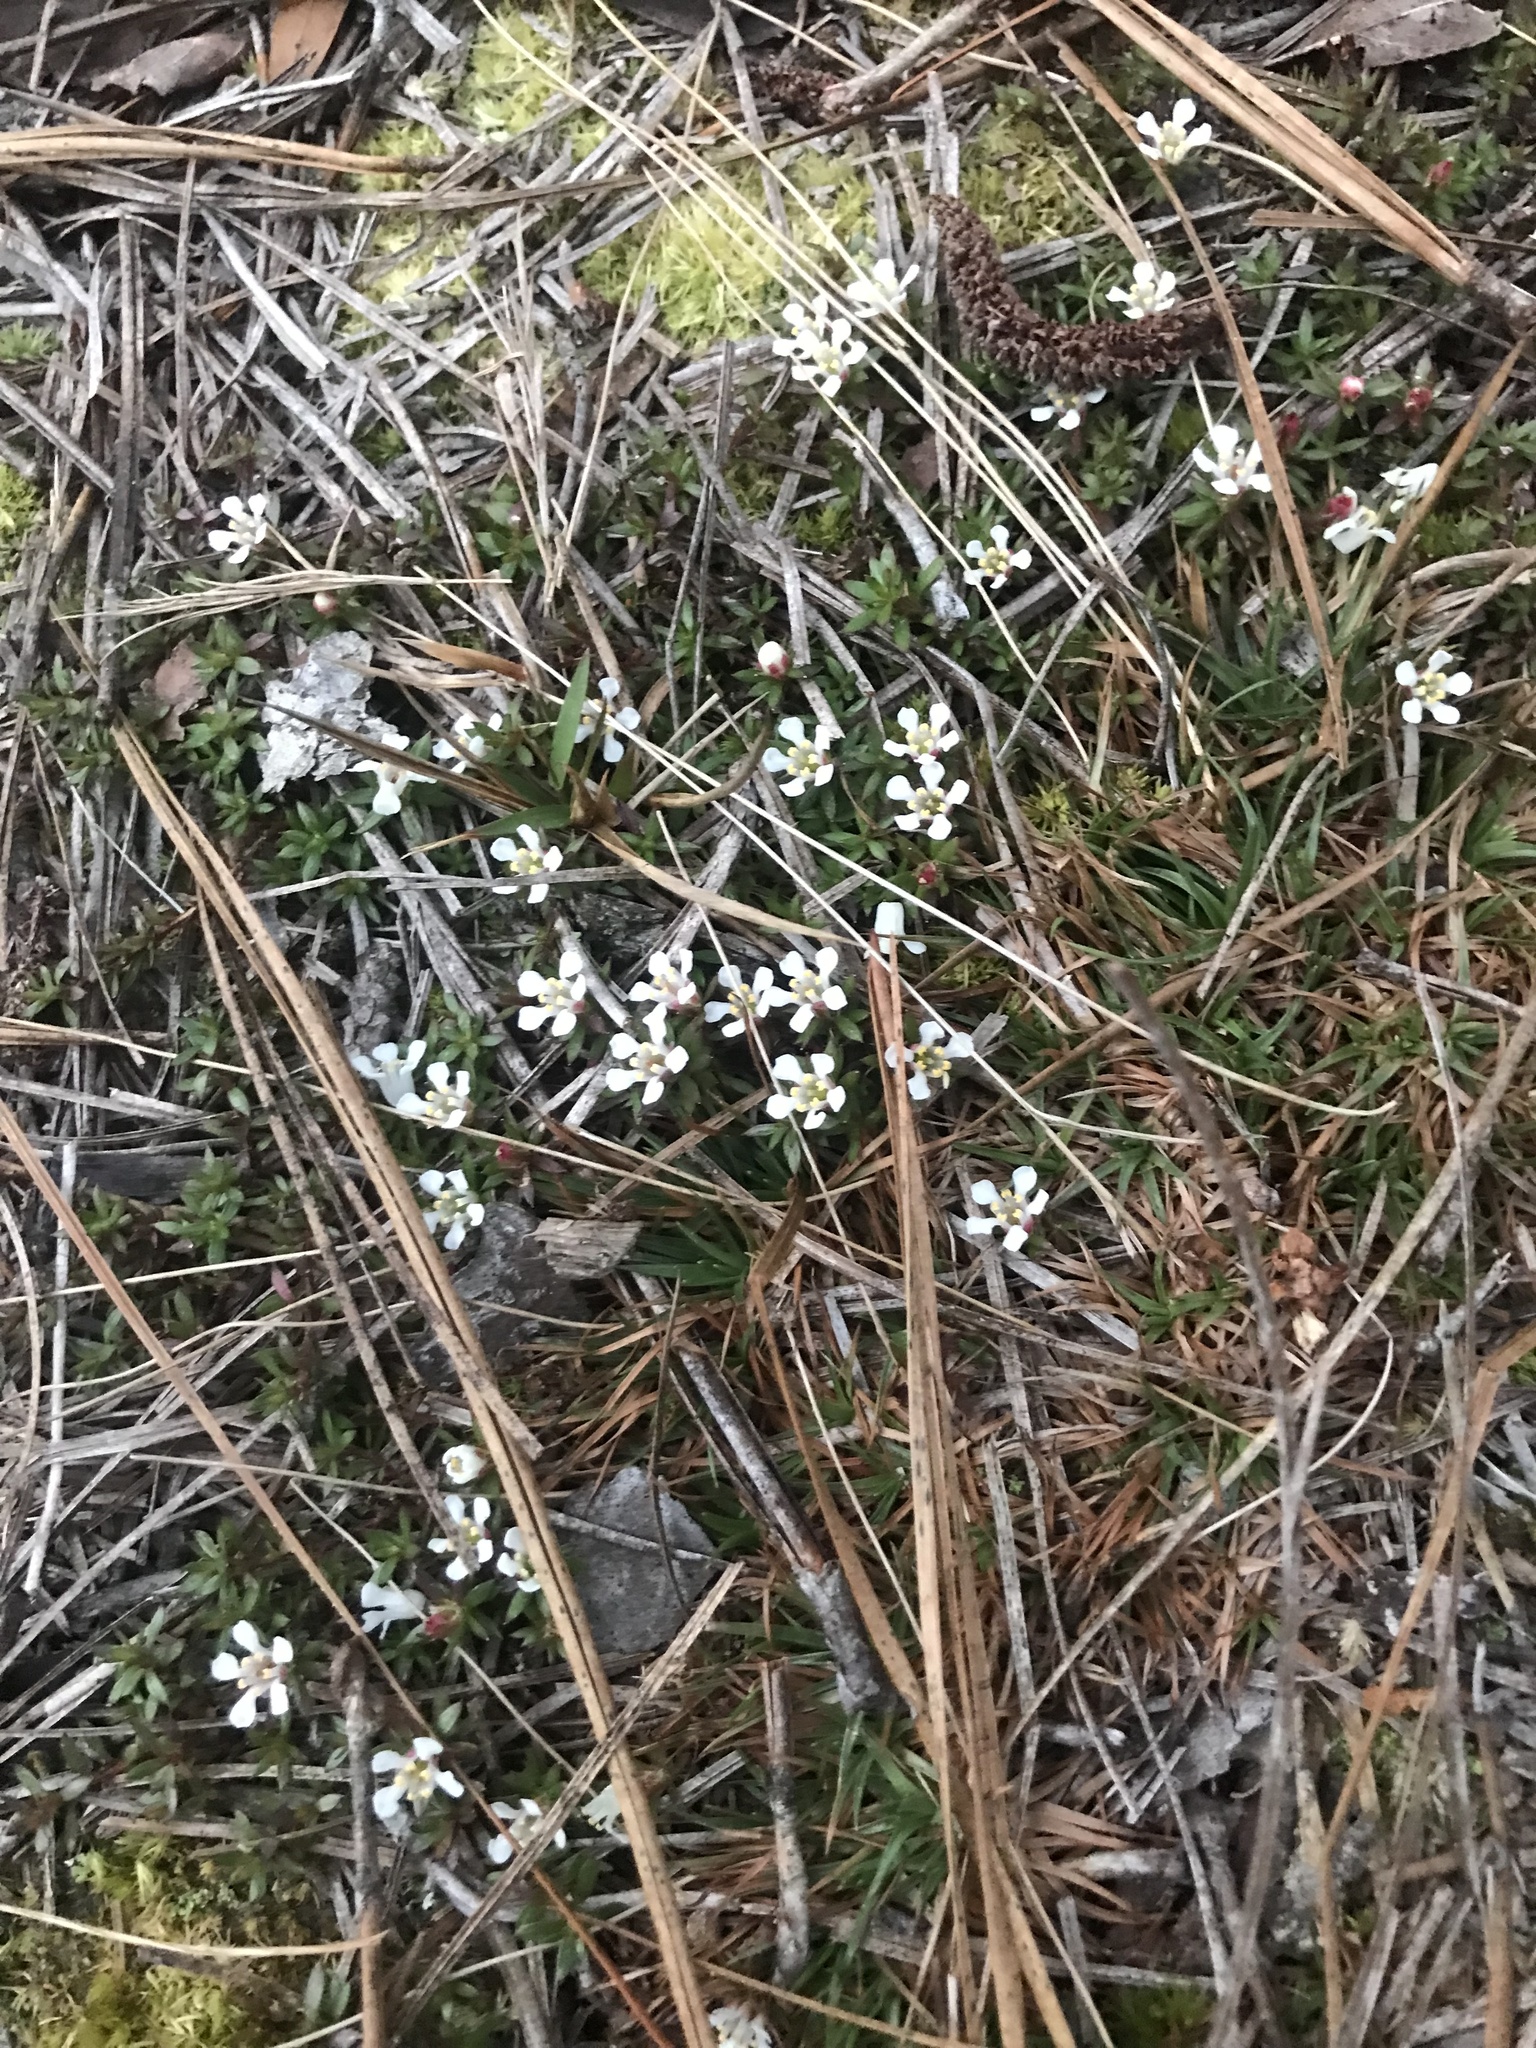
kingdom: Plantae
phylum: Tracheophyta
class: Magnoliopsida
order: Ericales
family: Diapensiaceae
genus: Pyxidanthera
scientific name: Pyxidanthera barbulata
